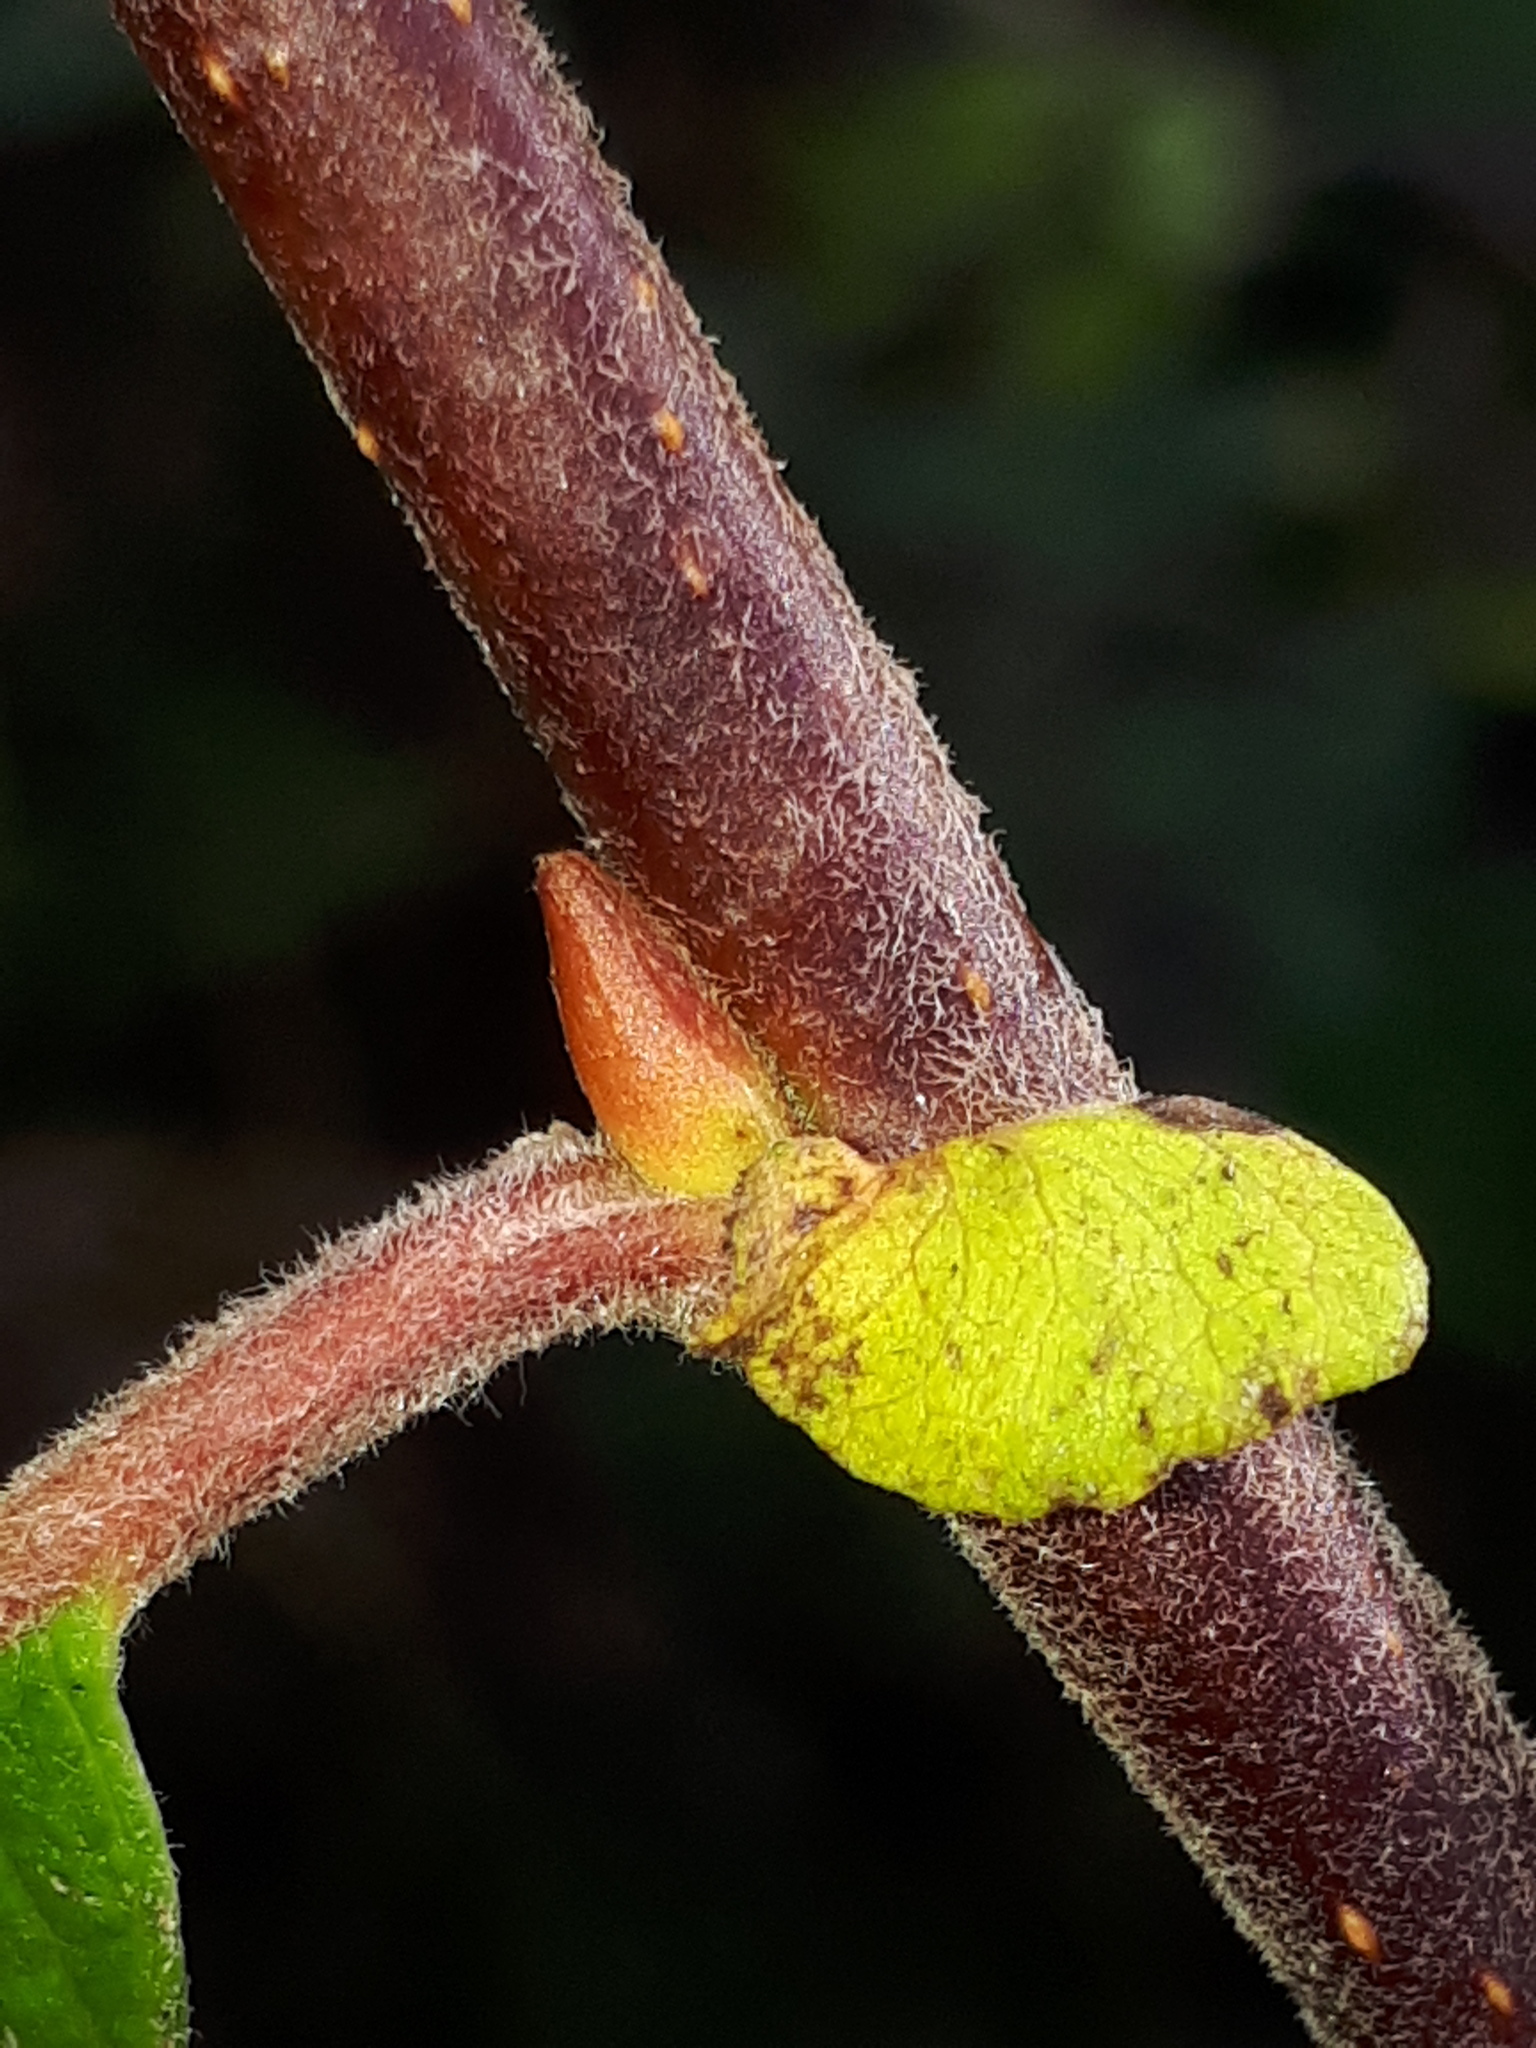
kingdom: Plantae
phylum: Tracheophyta
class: Magnoliopsida
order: Malpighiales
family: Salicaceae
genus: Salix
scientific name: Salix caprea
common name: Goat willow
